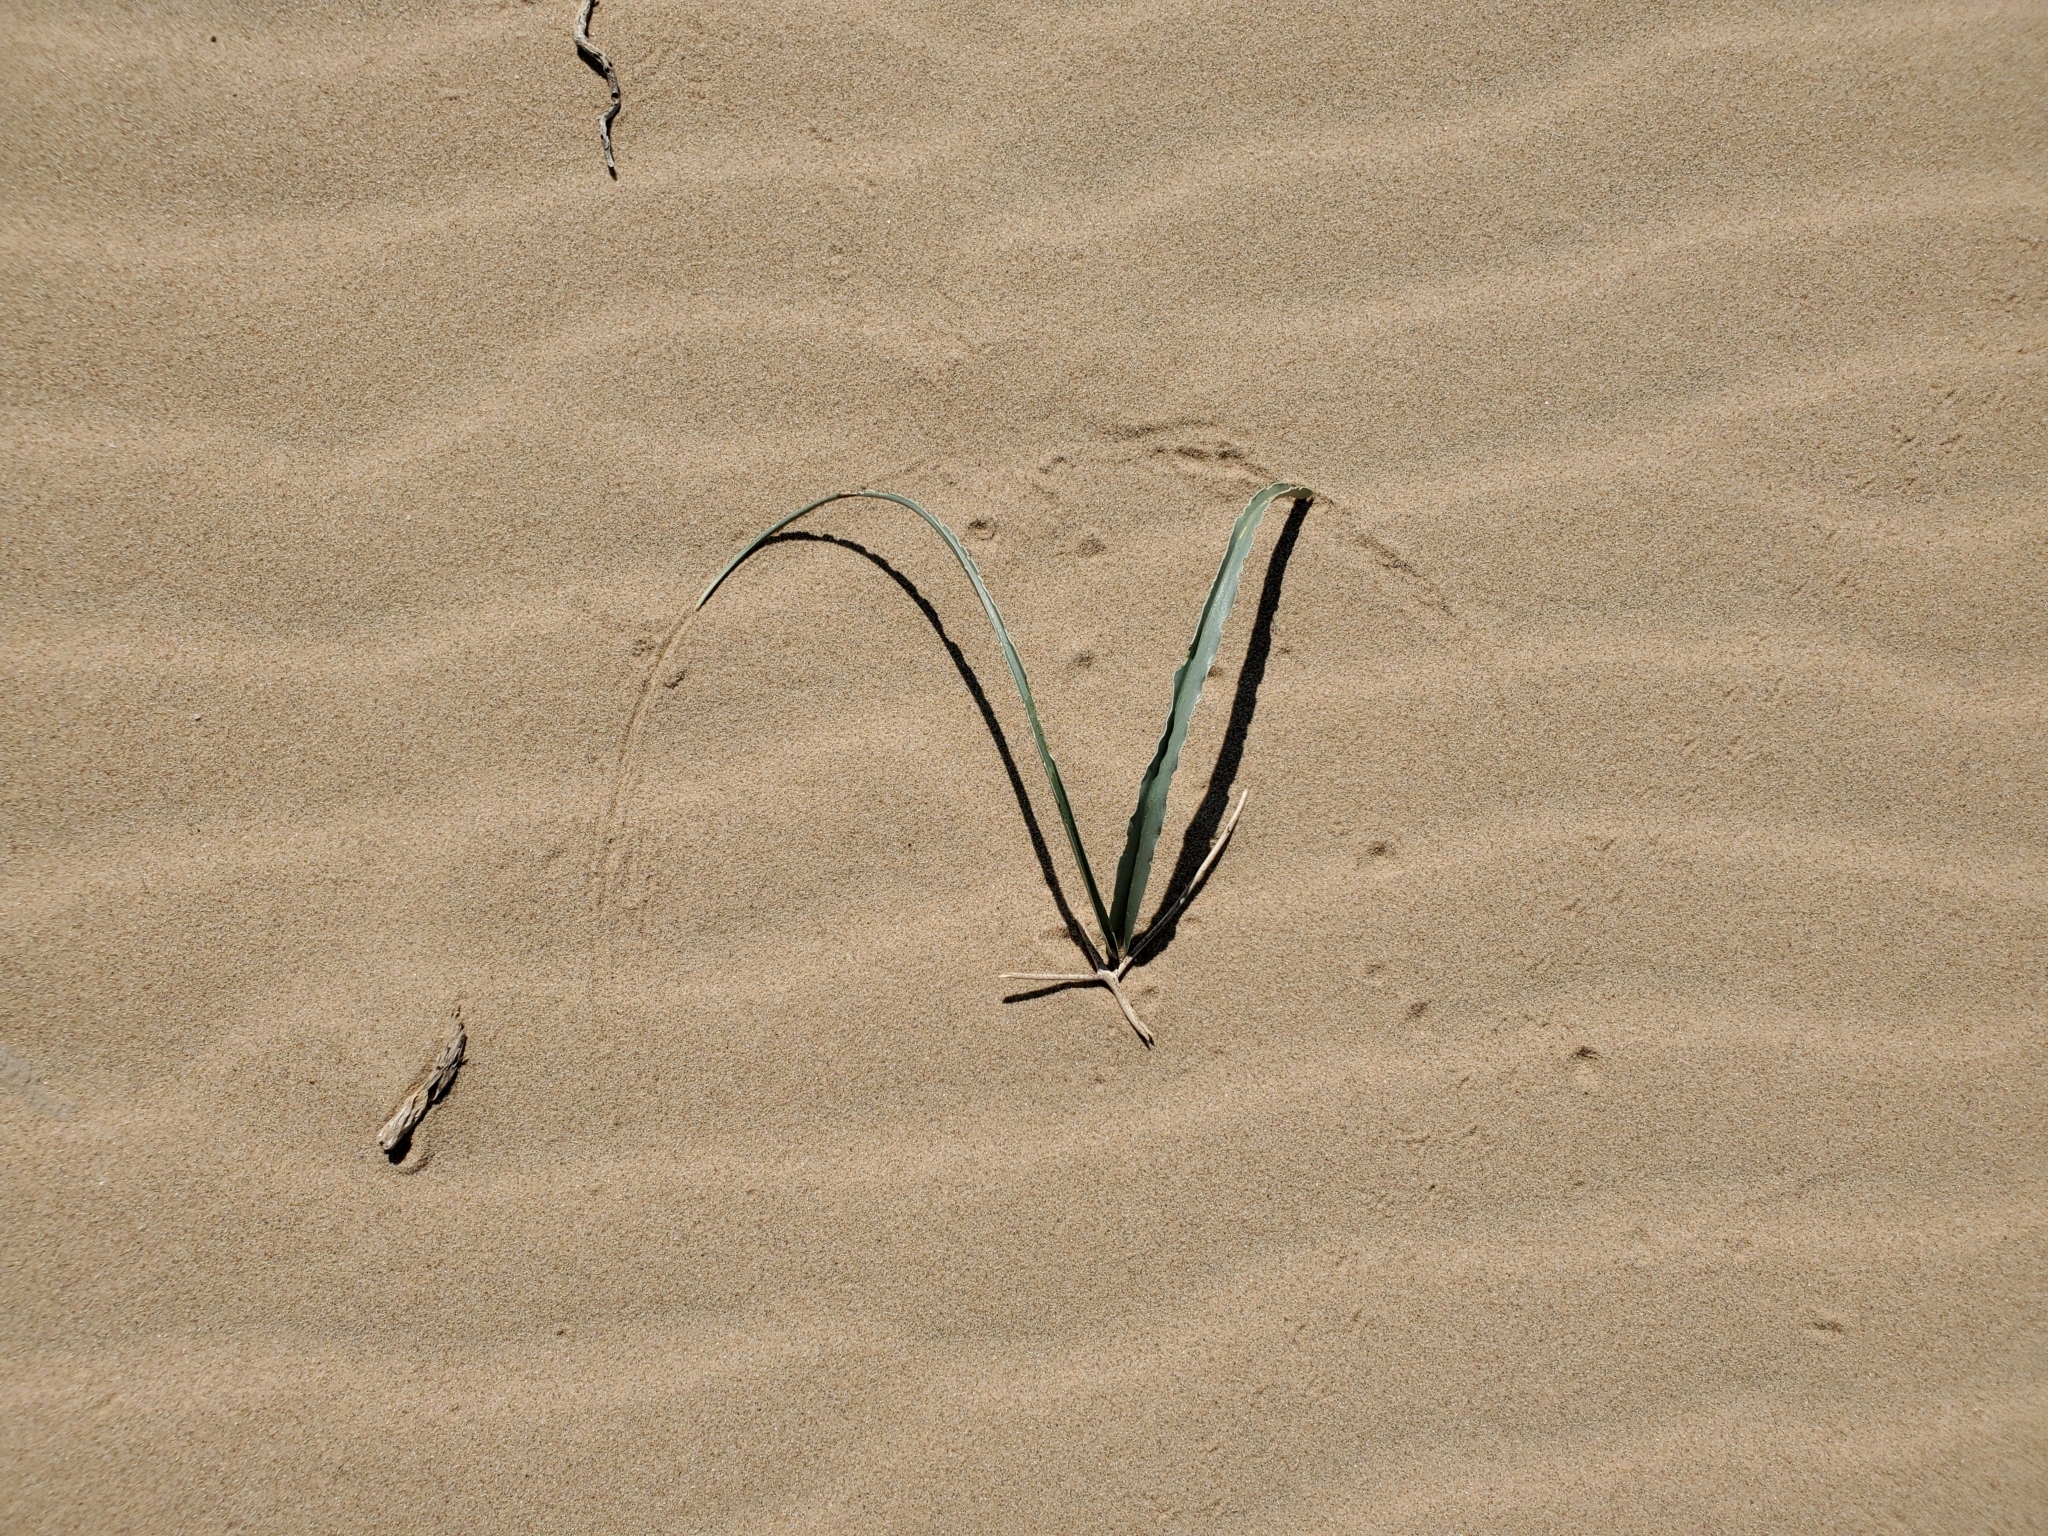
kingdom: Plantae
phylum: Tracheophyta
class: Liliopsida
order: Asparagales
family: Asparagaceae
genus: Hesperocallis
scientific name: Hesperocallis undulata
